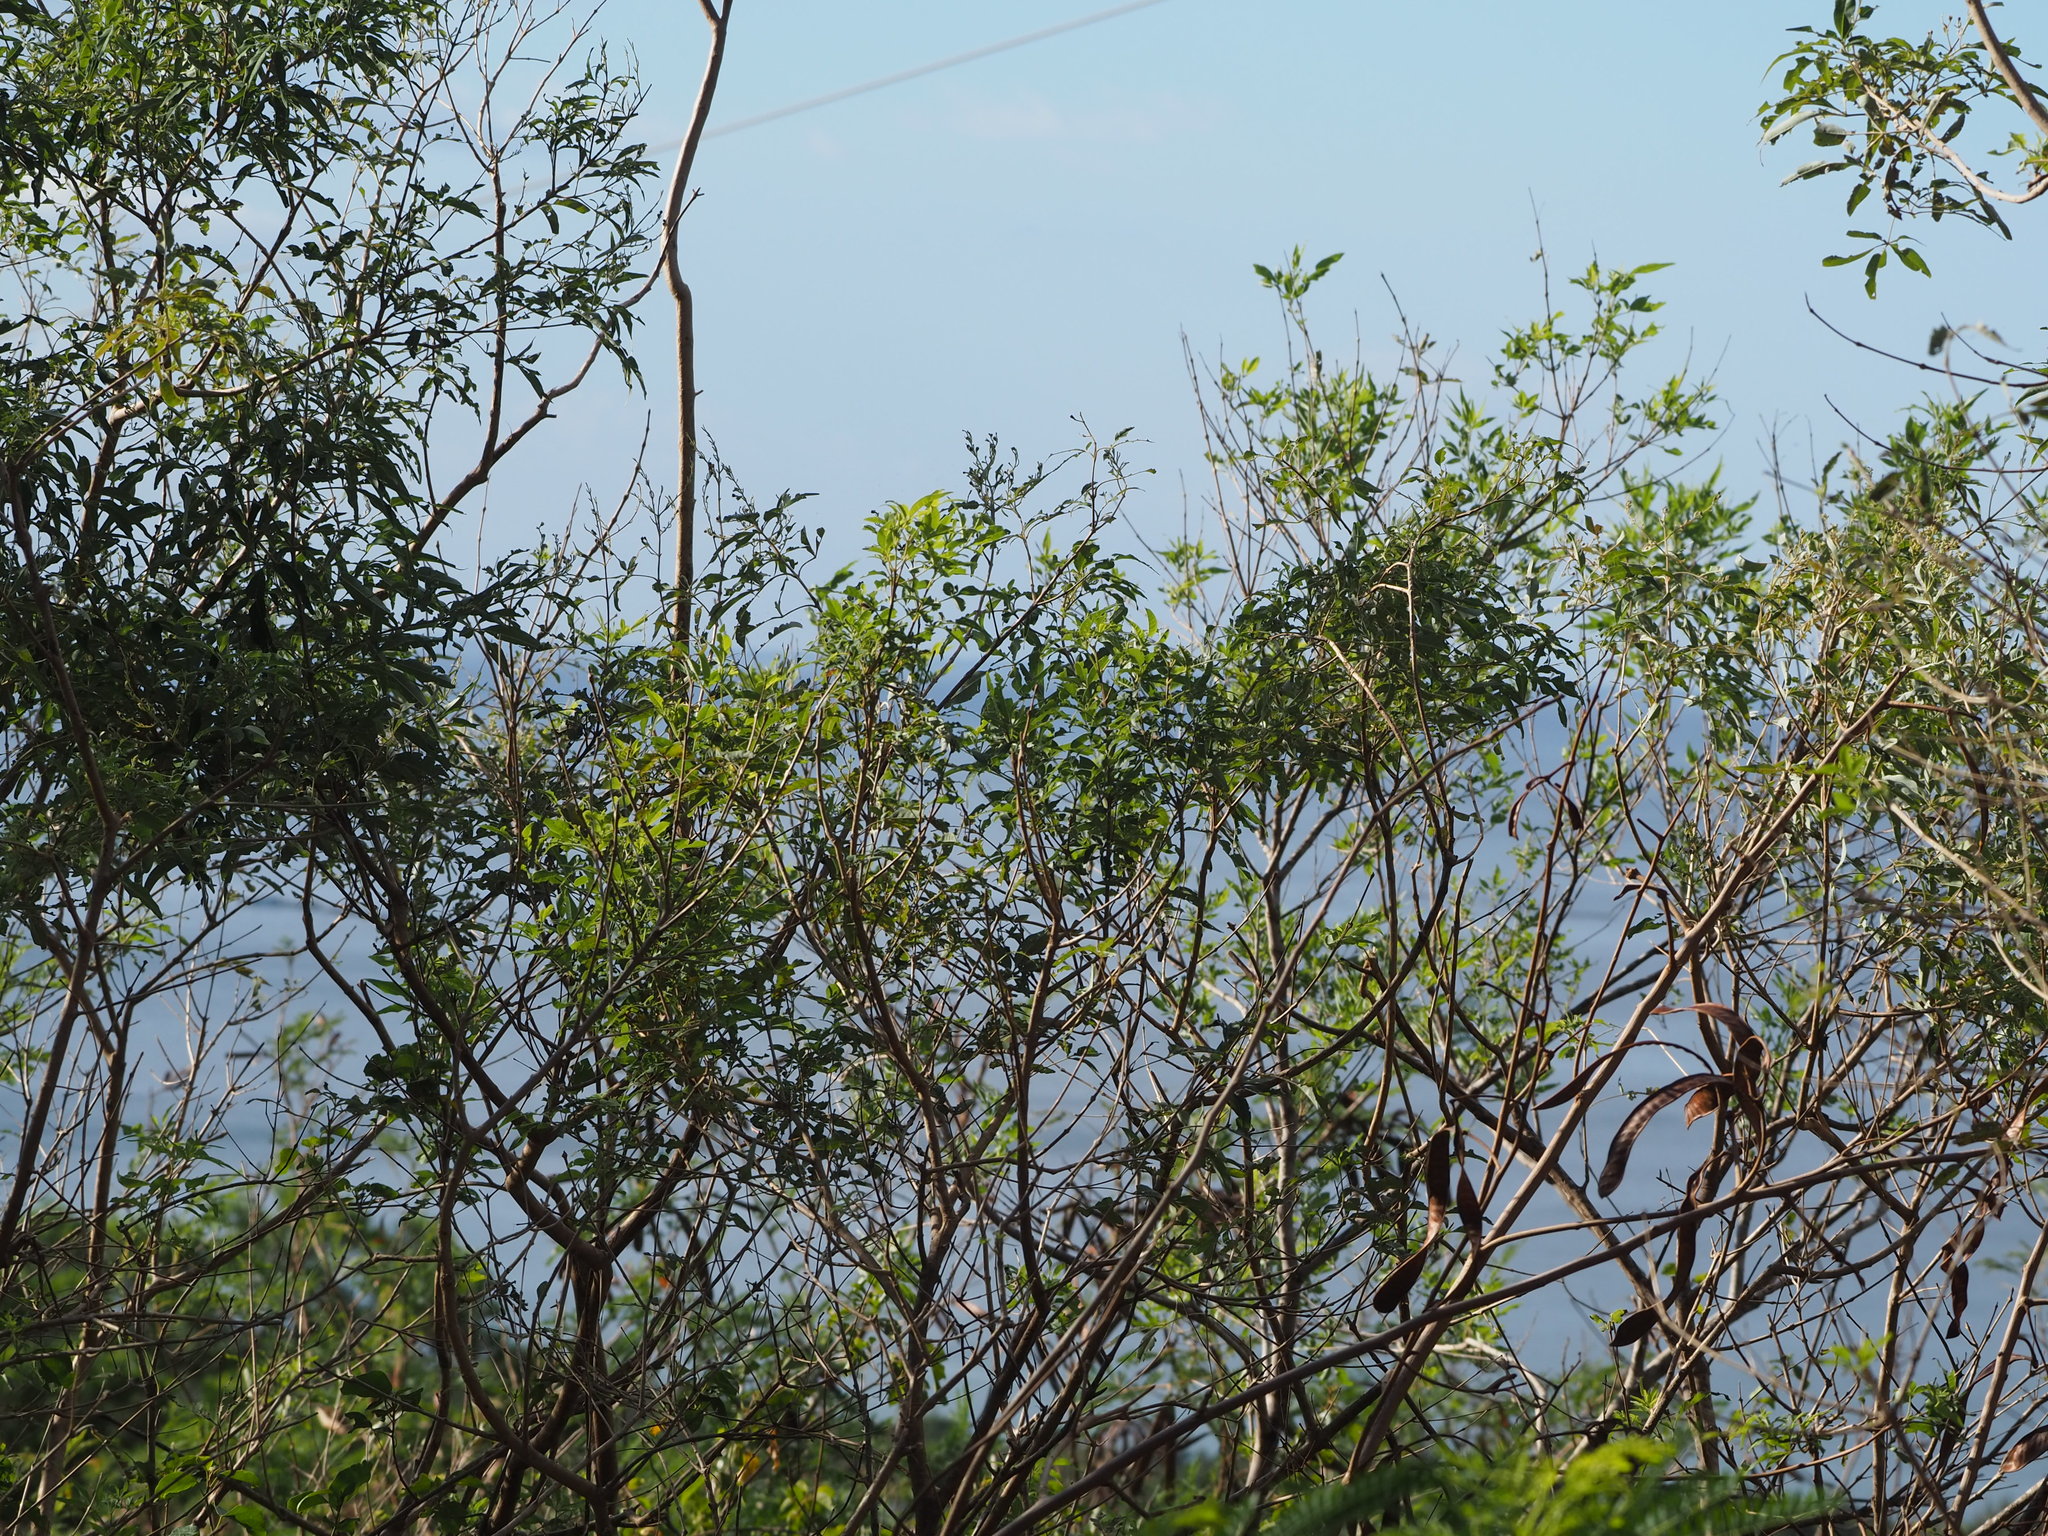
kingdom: Plantae
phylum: Tracheophyta
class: Magnoliopsida
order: Lamiales
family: Lamiaceae
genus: Vitex
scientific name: Vitex negundo
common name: Chinese chastetree
